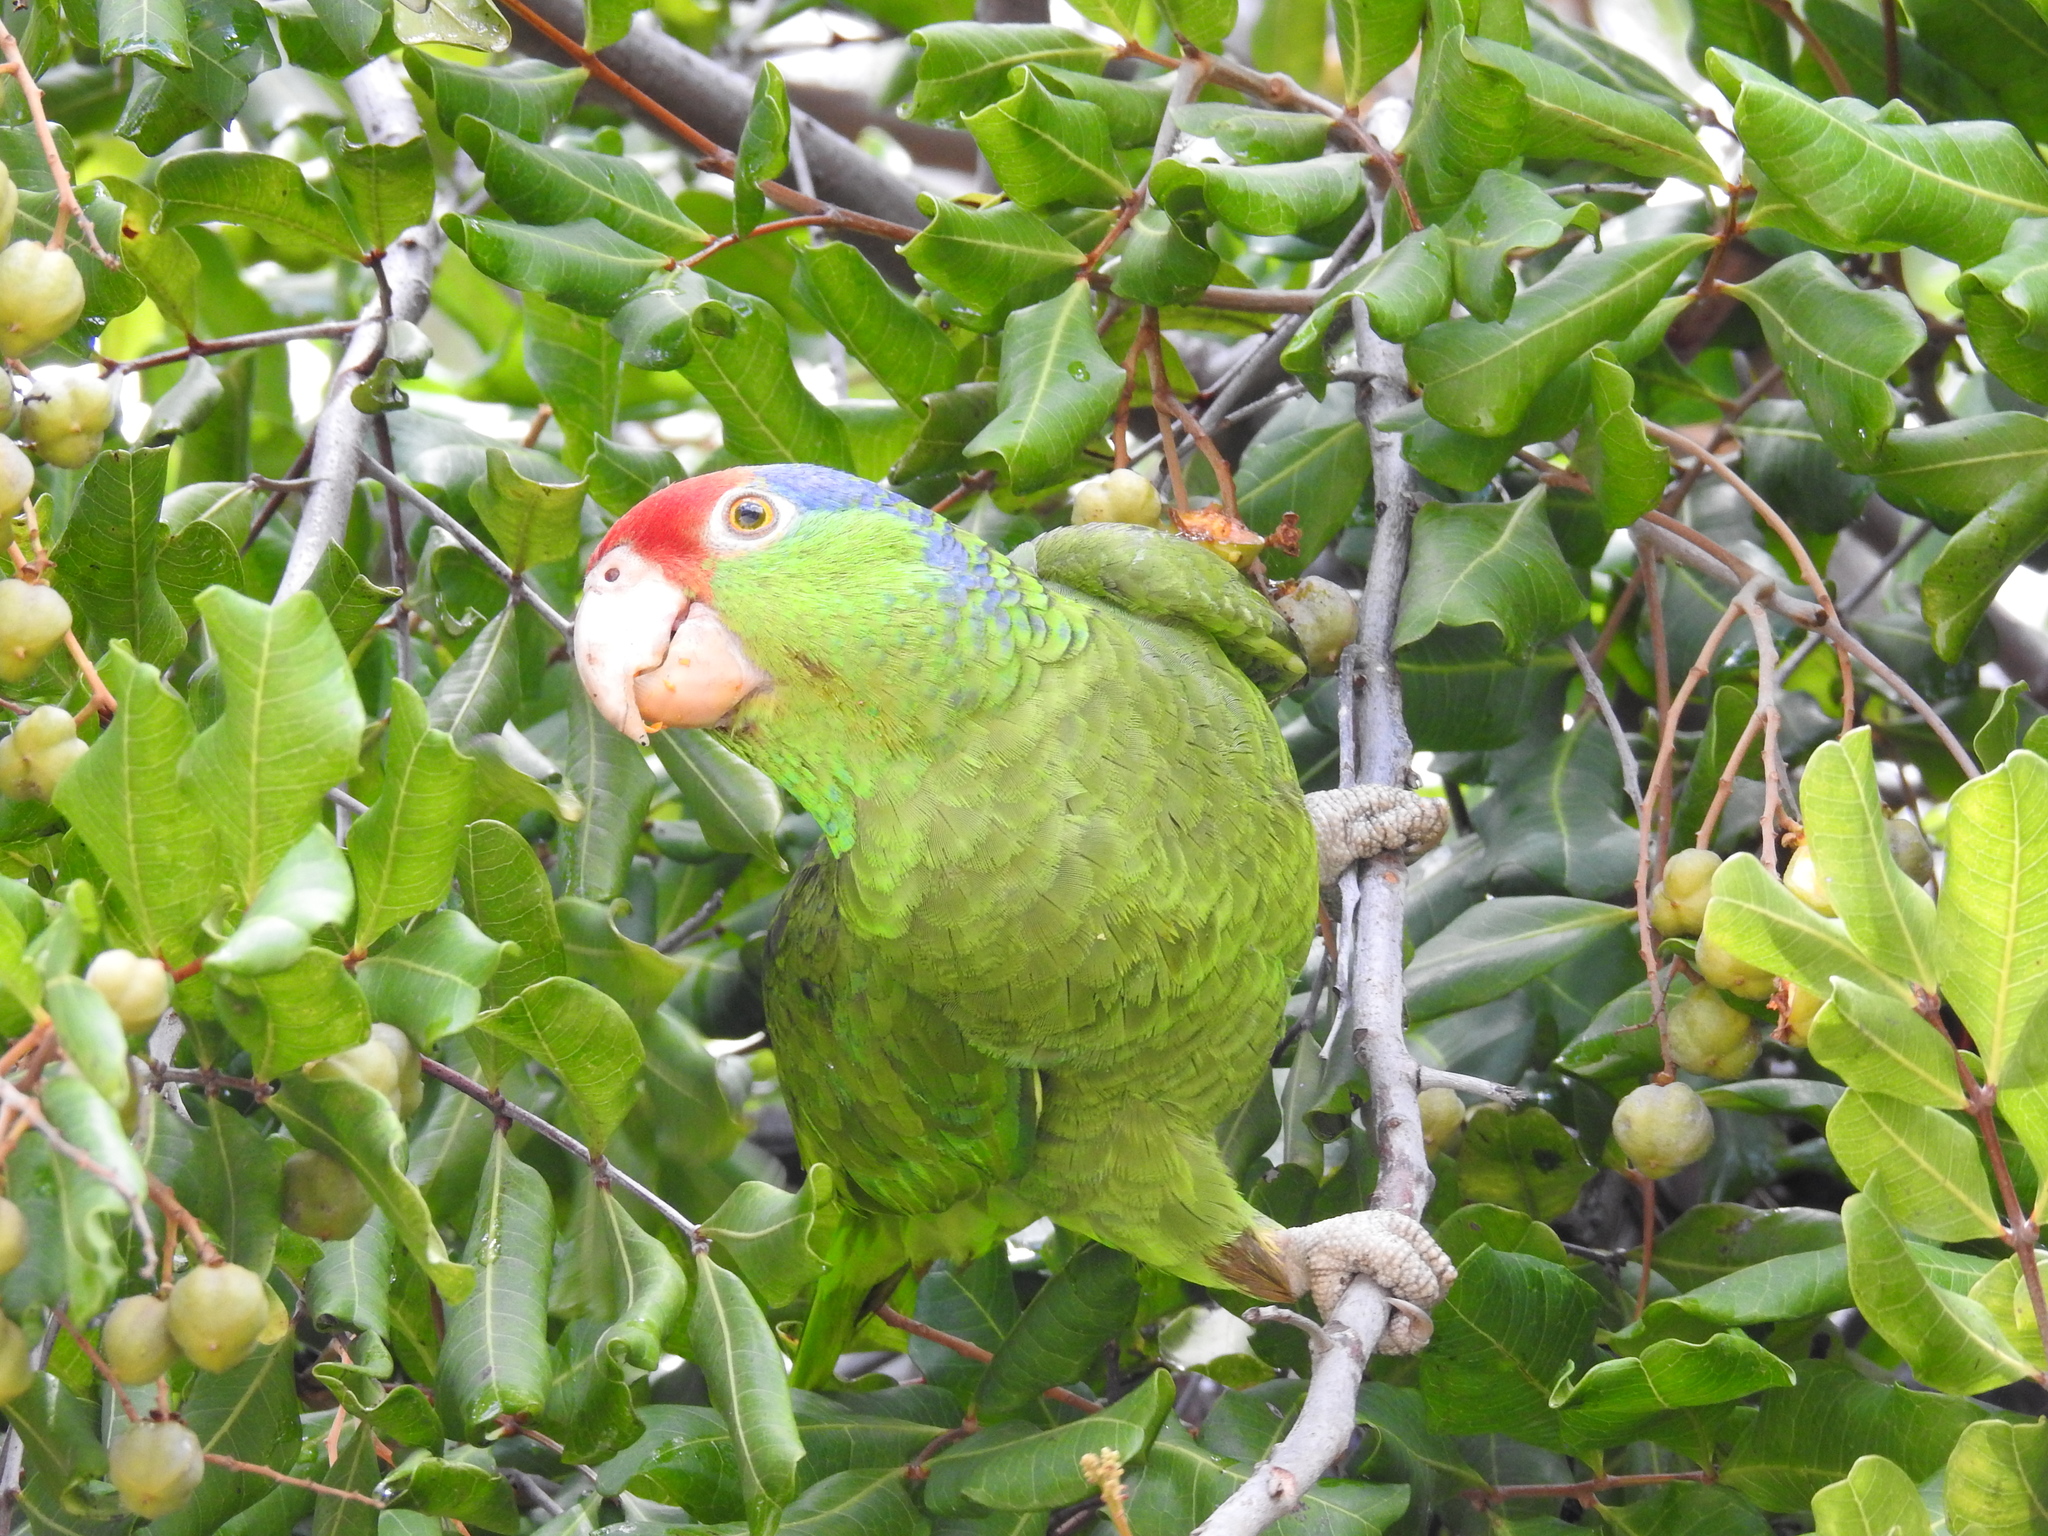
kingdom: Animalia
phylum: Chordata
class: Aves
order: Psittaciformes
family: Psittacidae
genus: Amazona
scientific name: Amazona viridigenalis
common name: Red-crowned amazon
